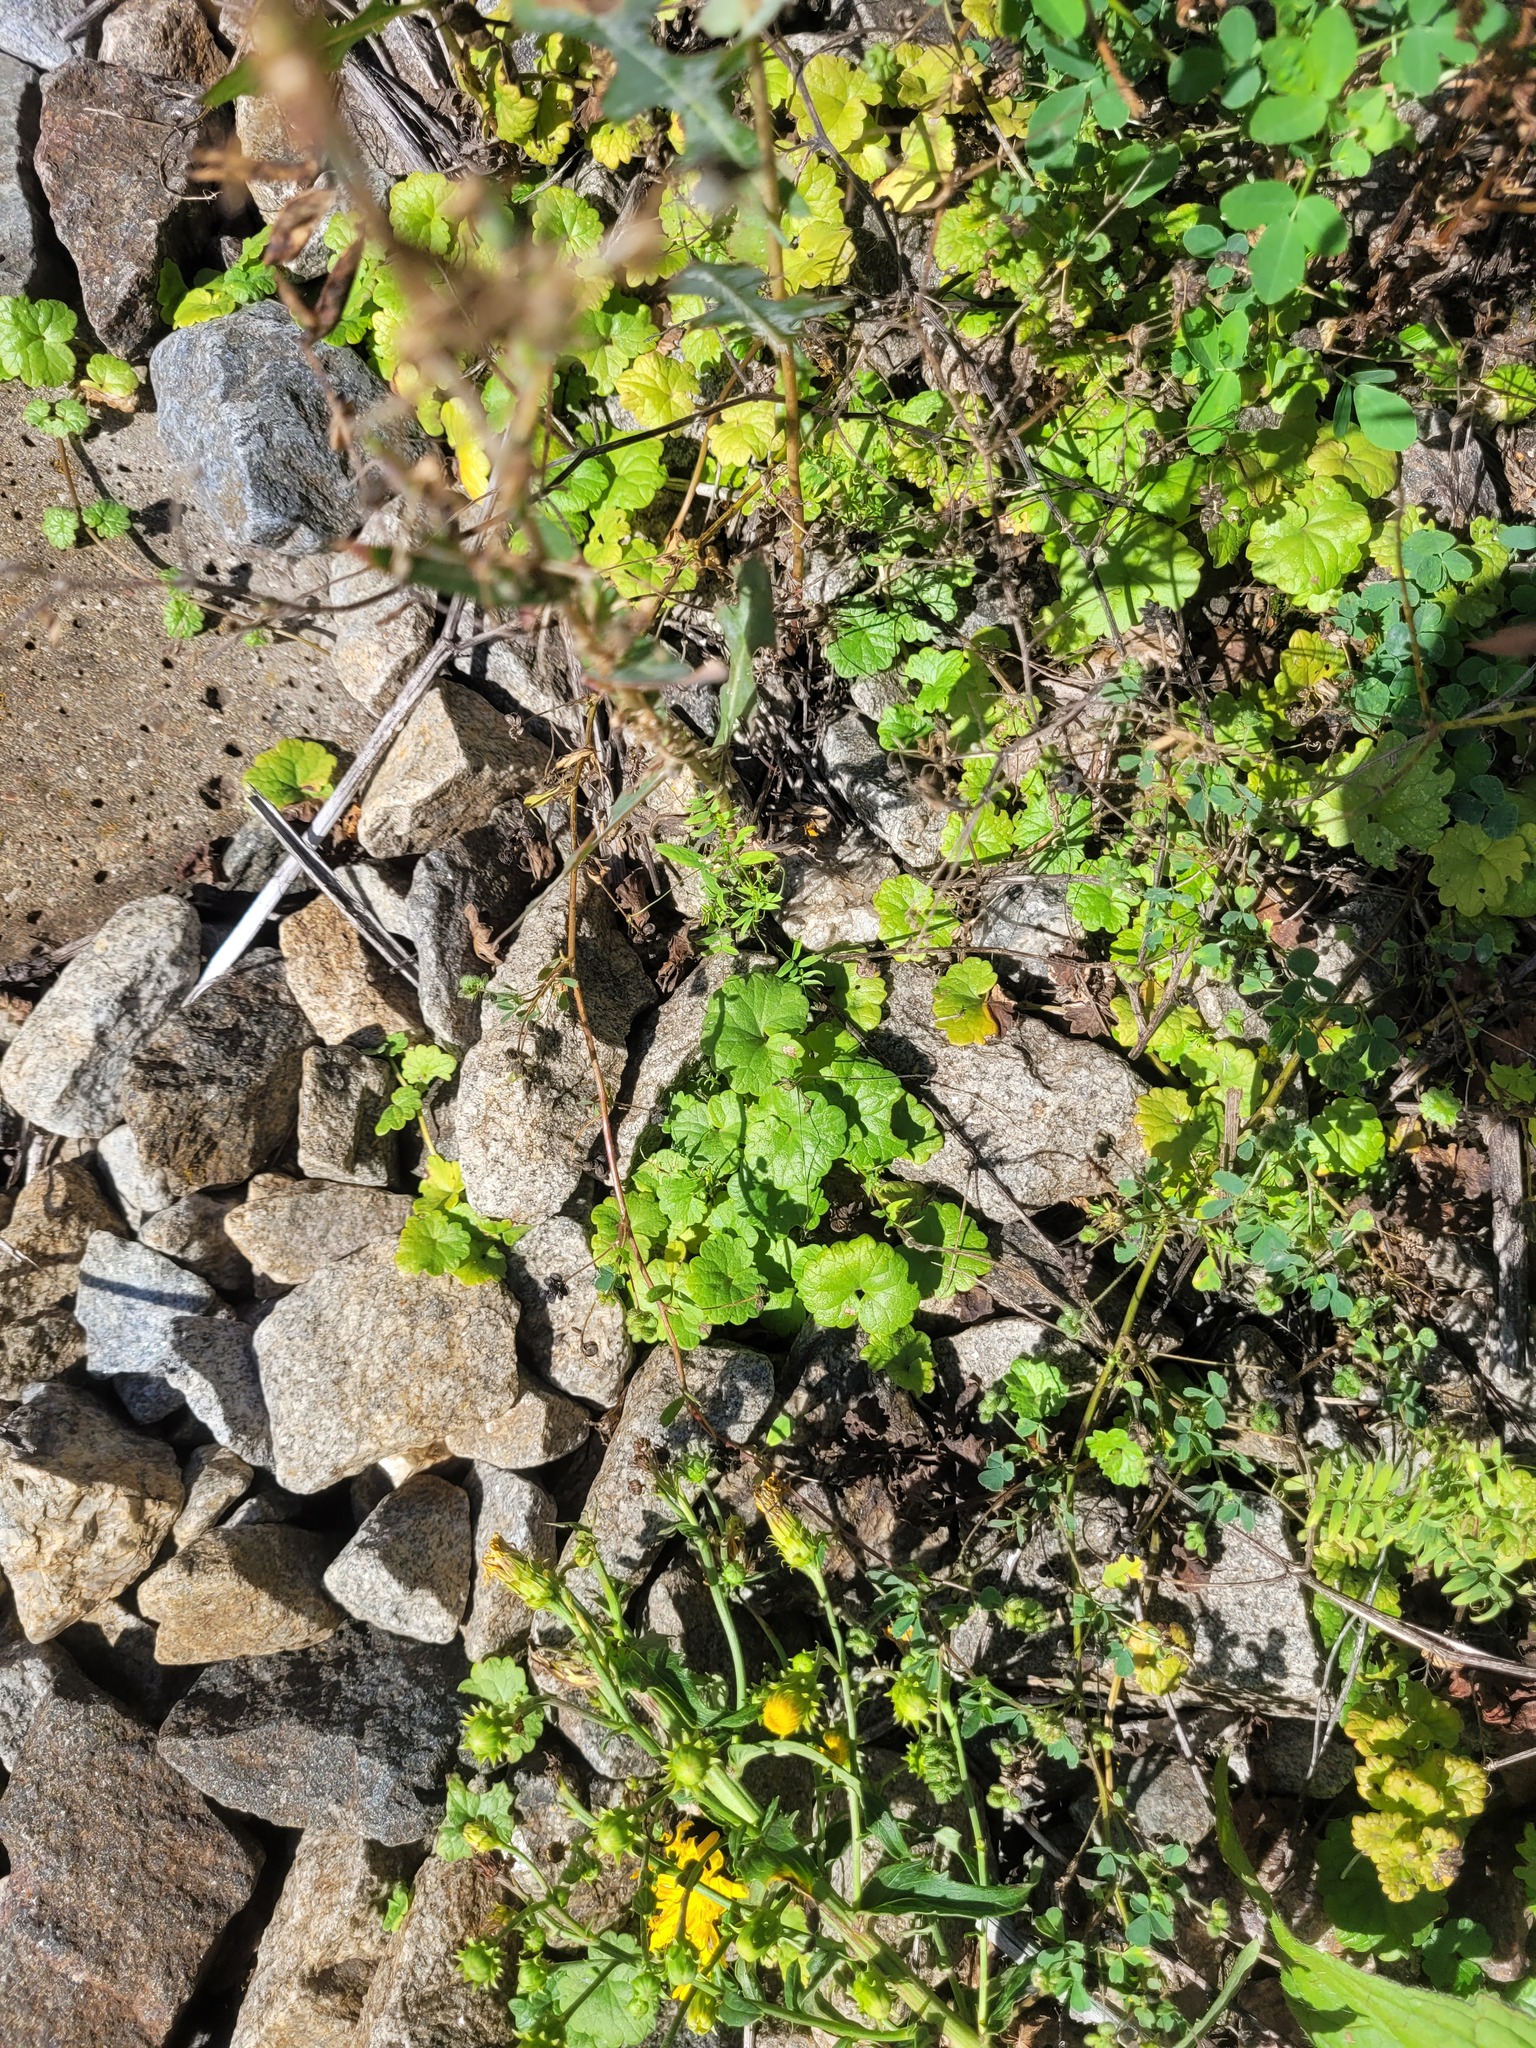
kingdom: Plantae
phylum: Tracheophyta
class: Magnoliopsida
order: Lamiales
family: Lamiaceae
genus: Glechoma
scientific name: Glechoma hederacea
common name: Ground ivy
